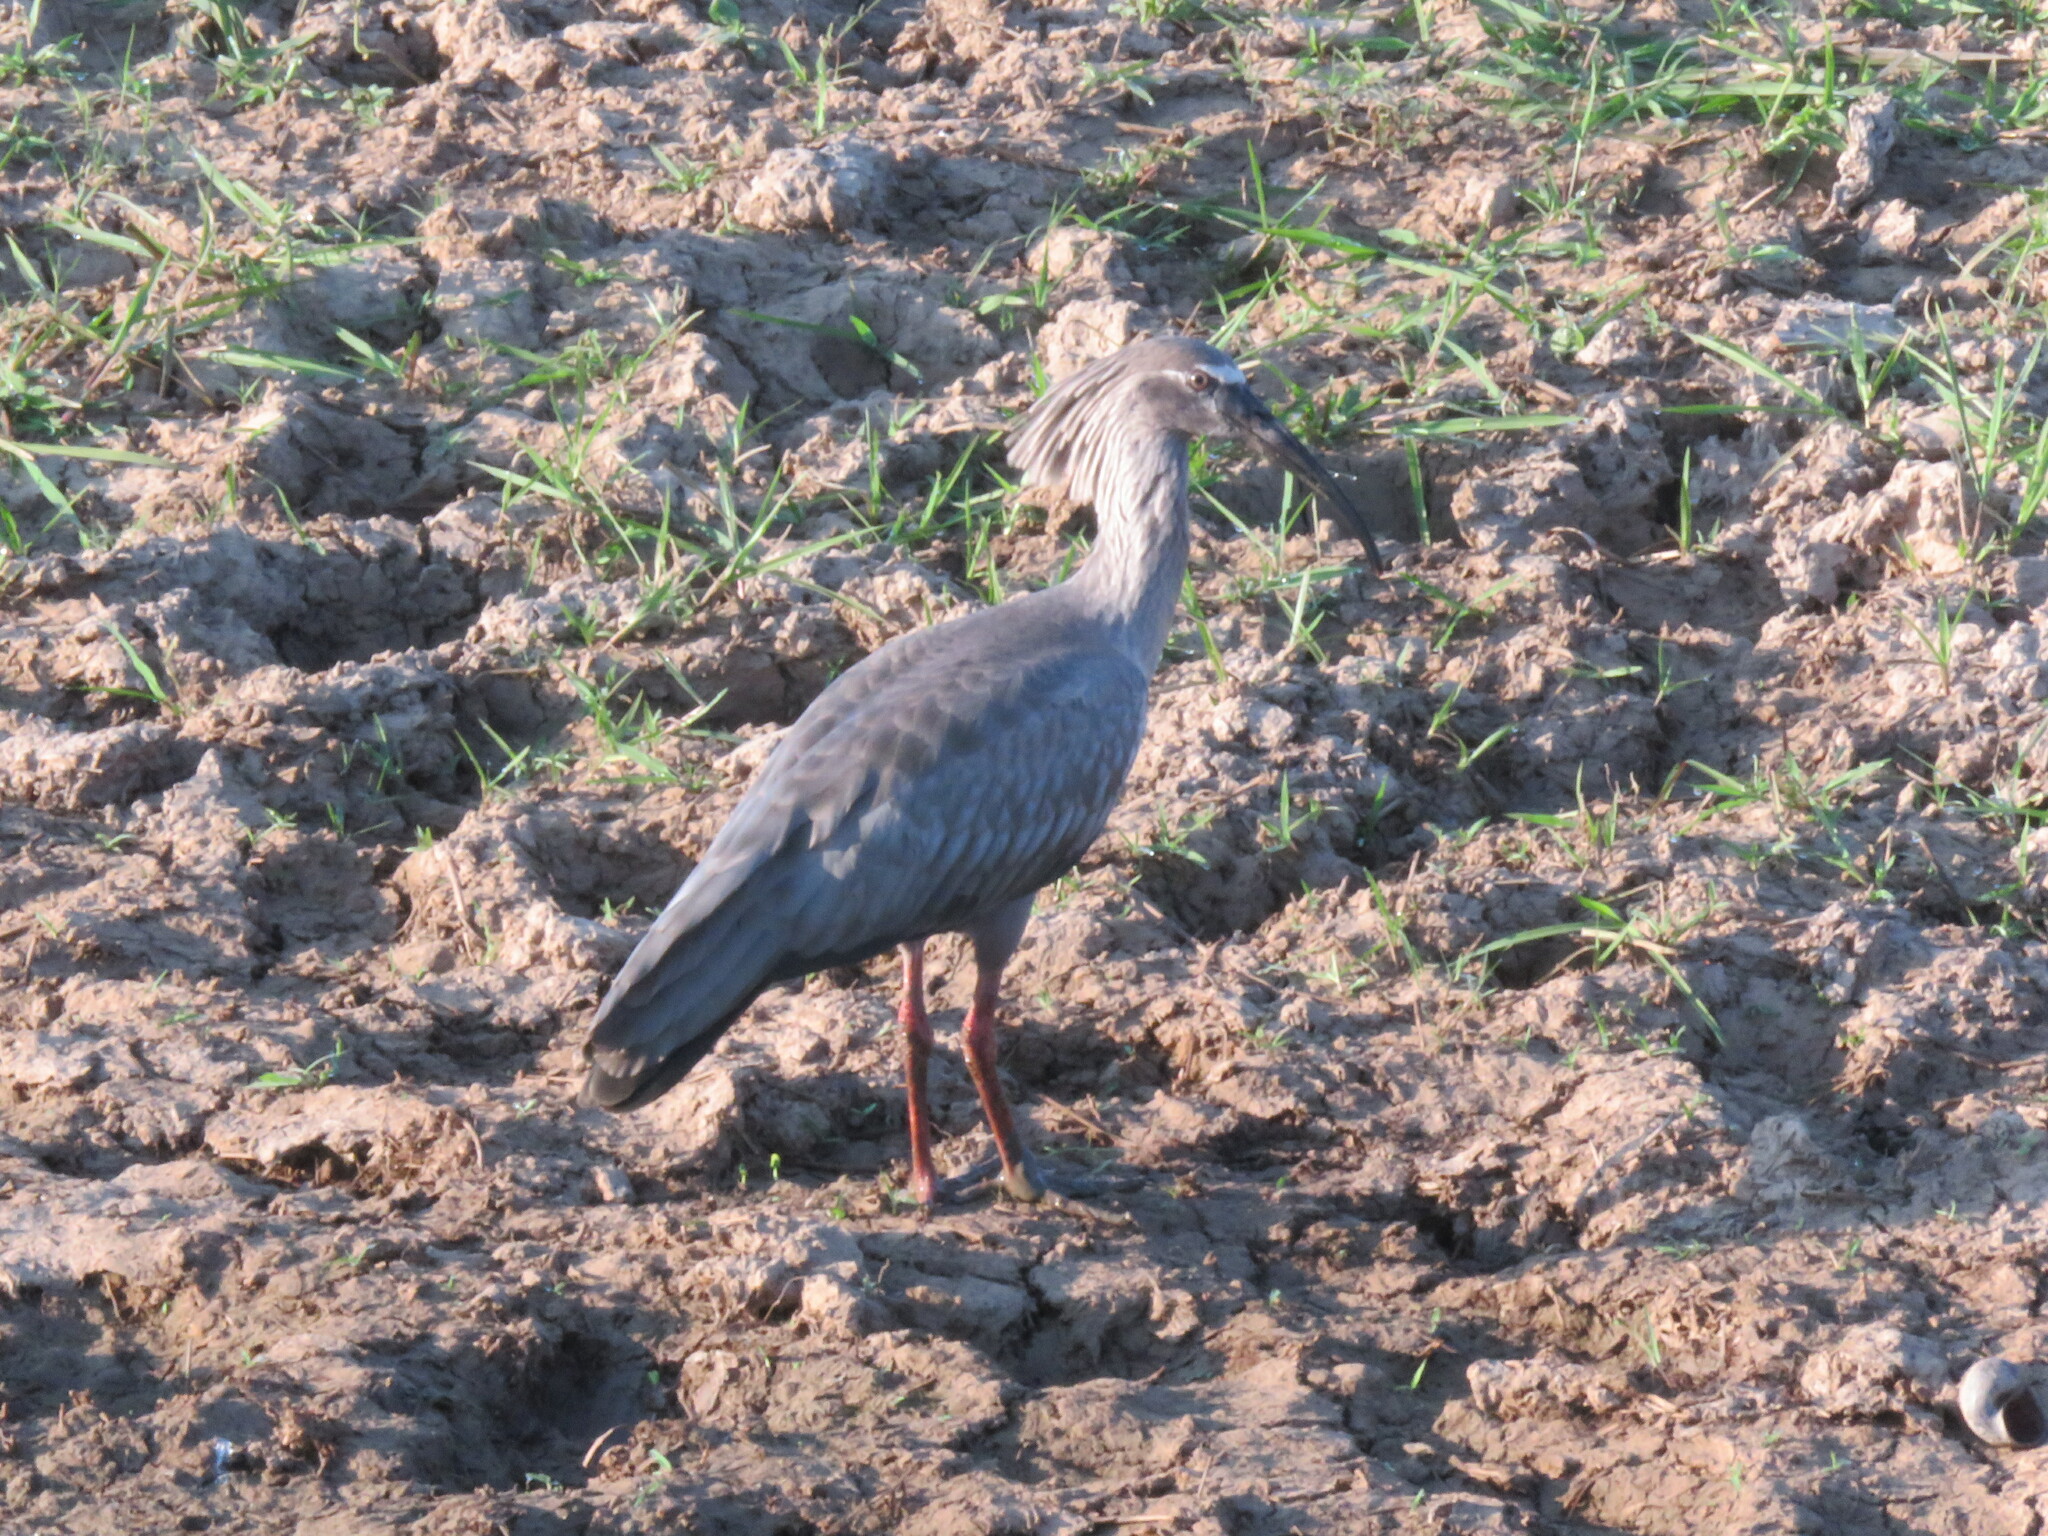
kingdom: Animalia
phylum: Chordata
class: Aves
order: Pelecaniformes
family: Threskiornithidae
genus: Theristicus
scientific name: Theristicus caerulescens
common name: Plumbeous ibis
